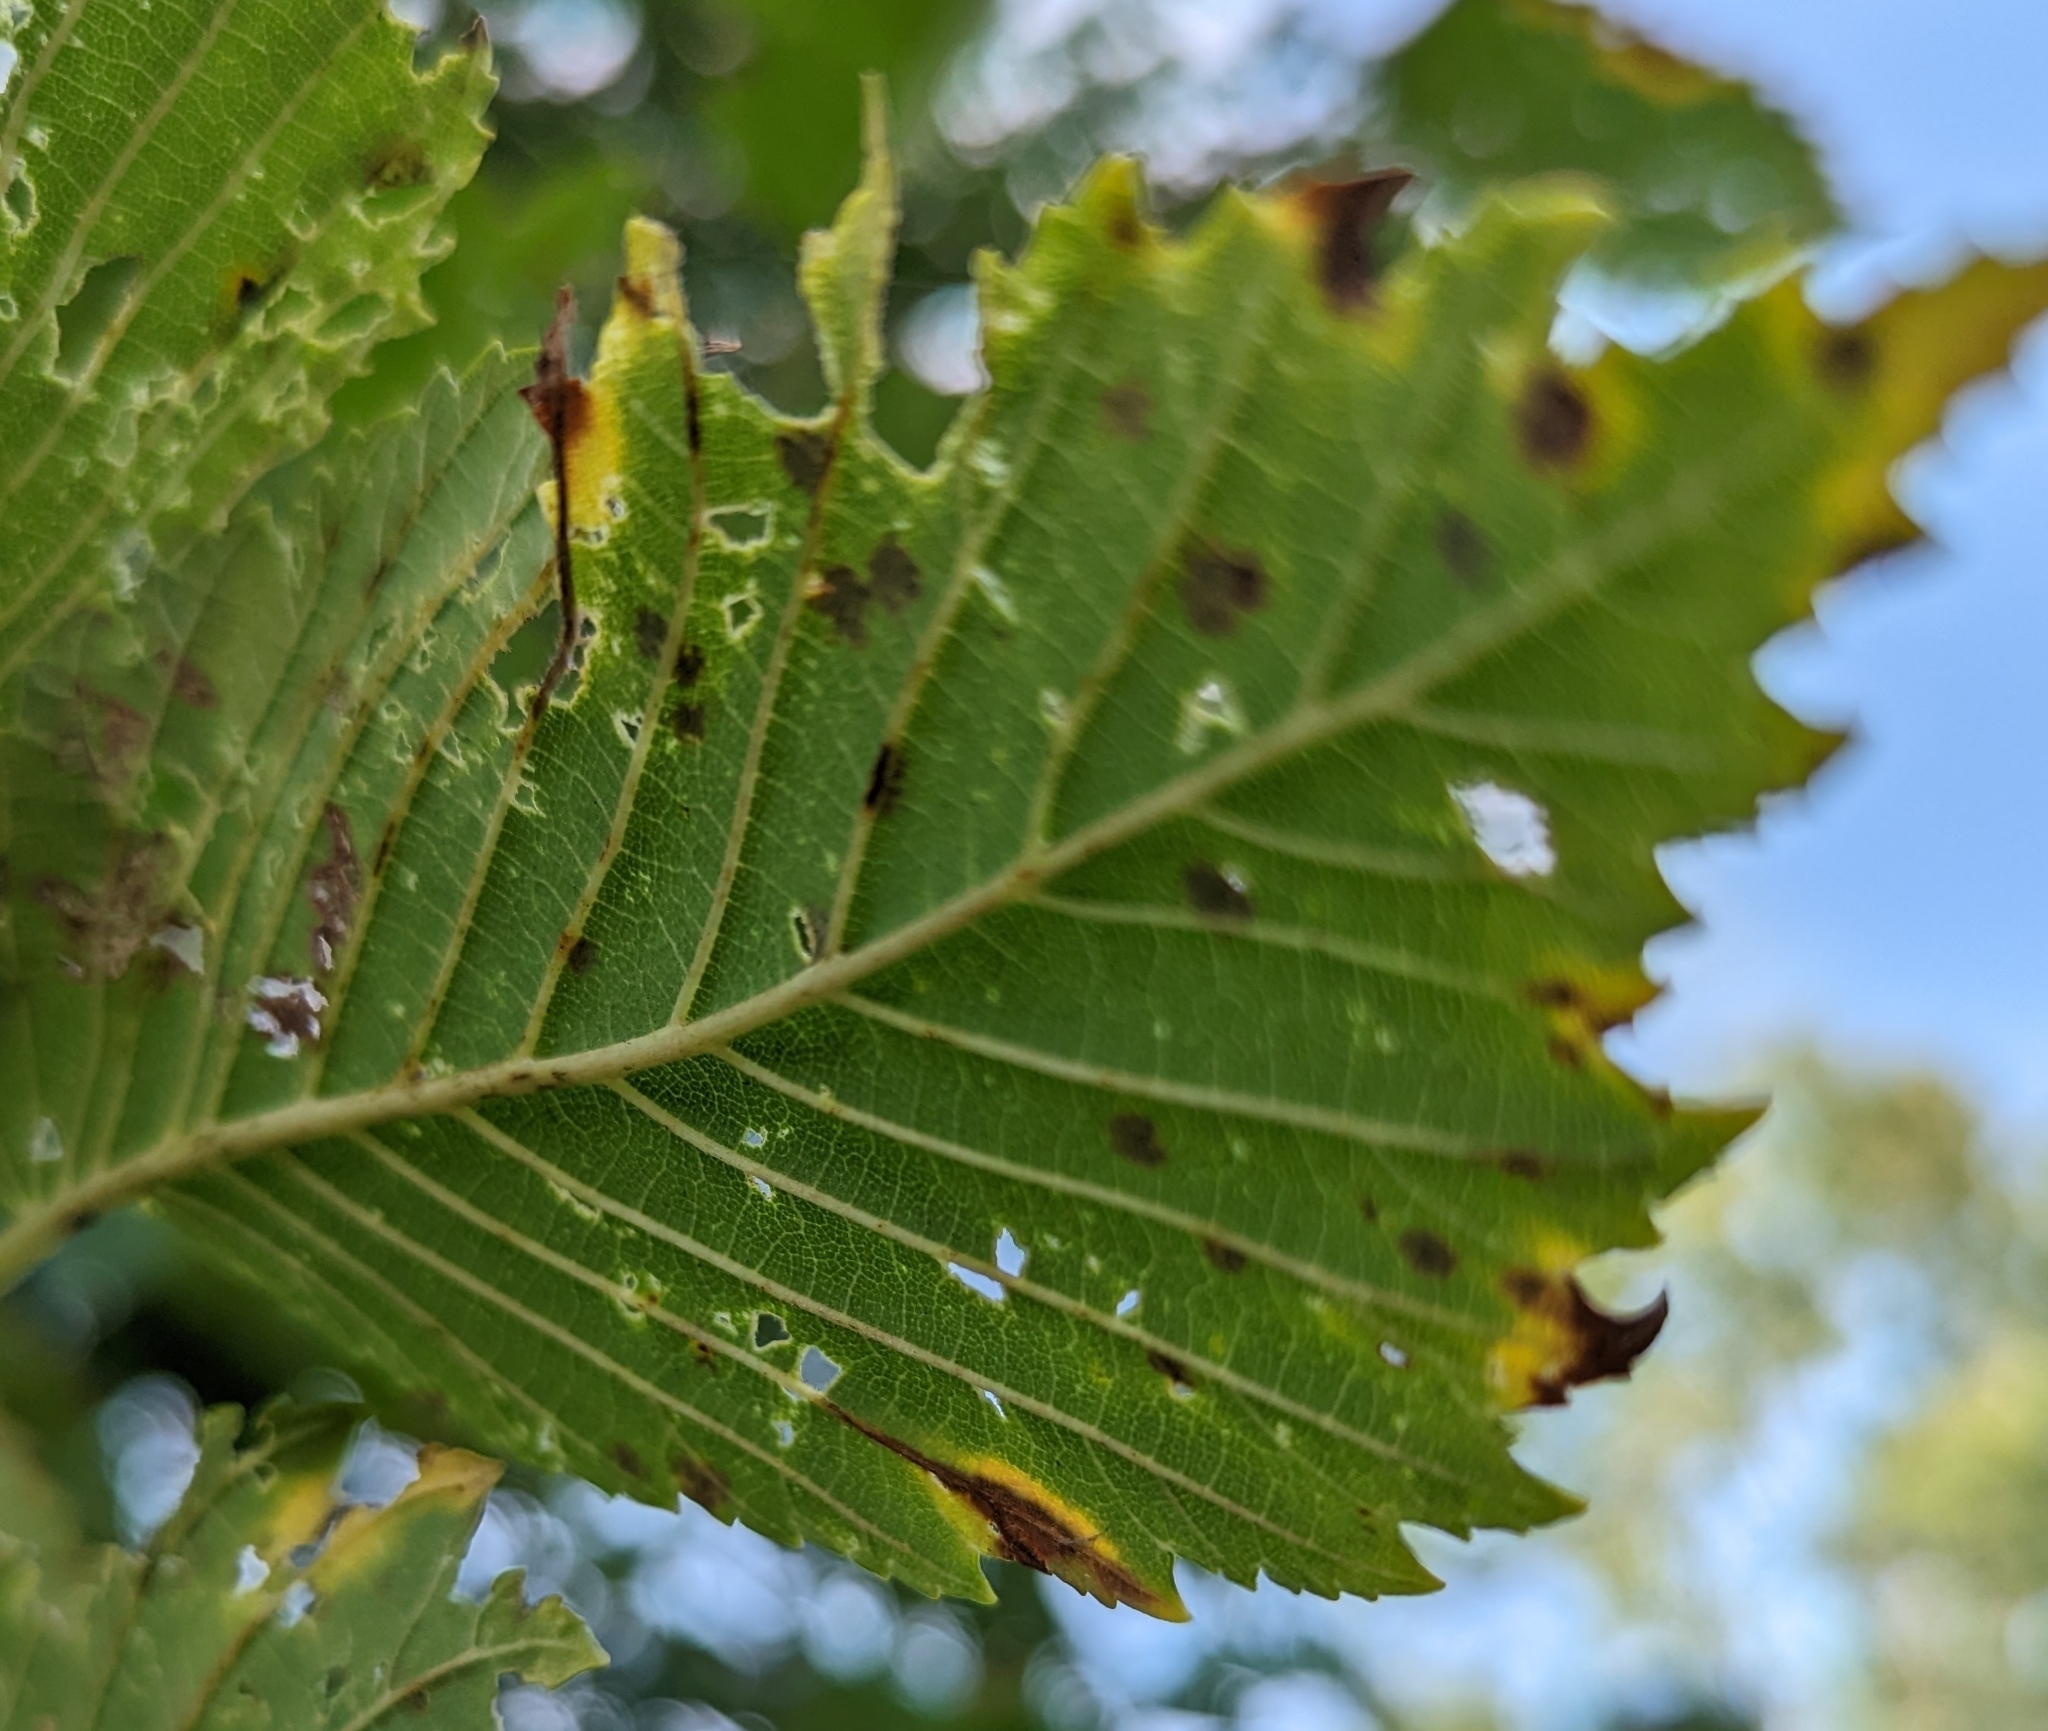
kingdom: Fungi
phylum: Ascomycota
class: Leotiomycetes
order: Rhytismatales
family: Rhytismataceae
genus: Rhytisma
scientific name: Rhytisma acerinum
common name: European tar spot
